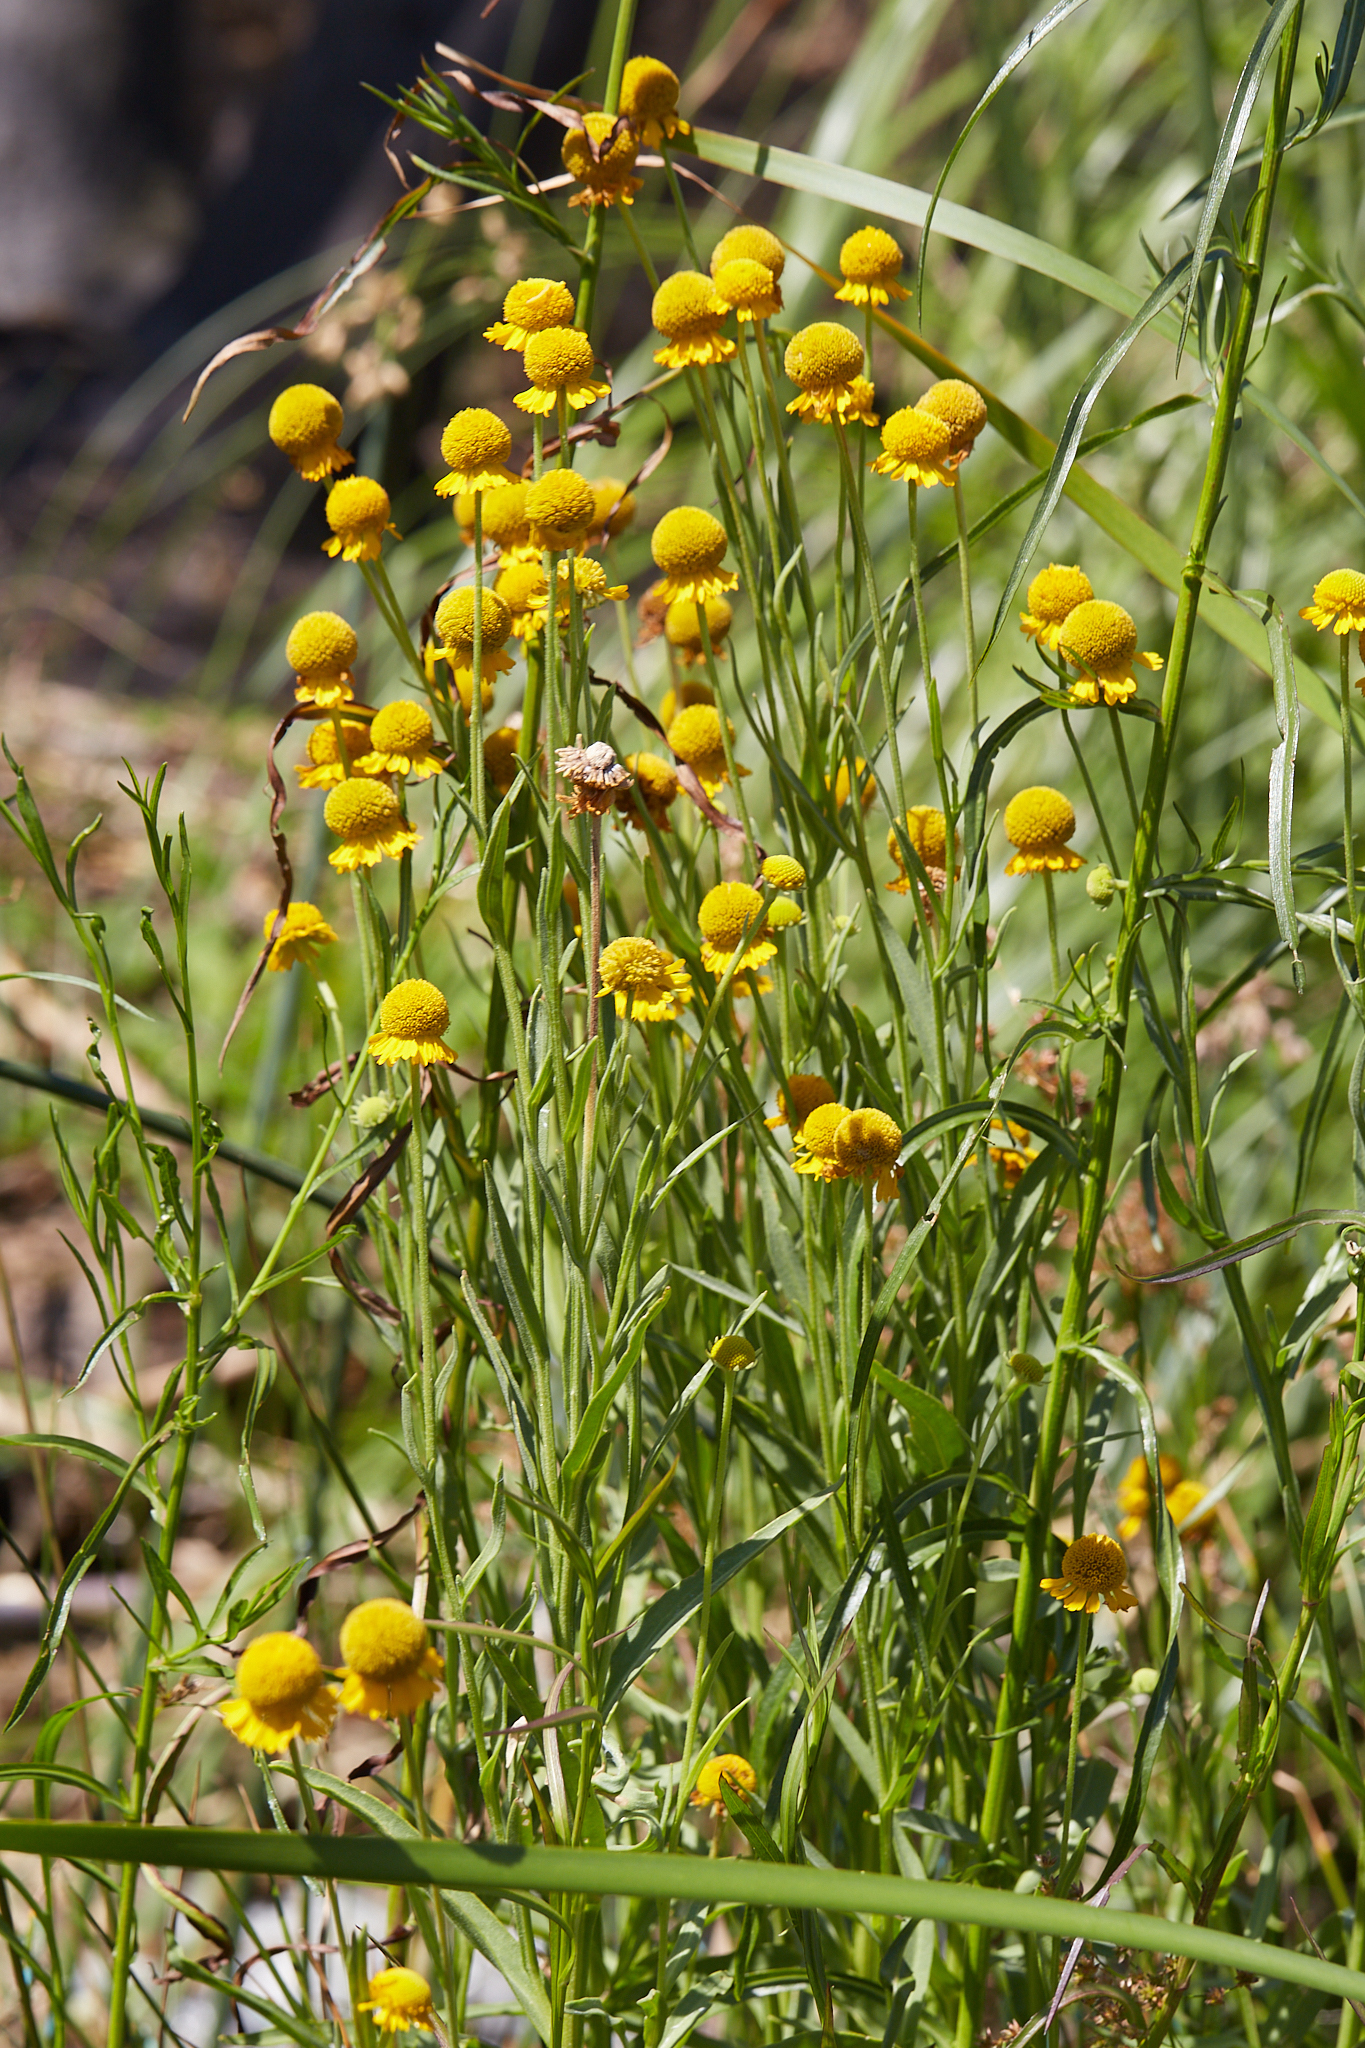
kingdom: Plantae
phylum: Tracheophyta
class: Magnoliopsida
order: Asterales
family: Asteraceae
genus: Helenium
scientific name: Helenium bigelovii
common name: Bigelow's sneezeweed
